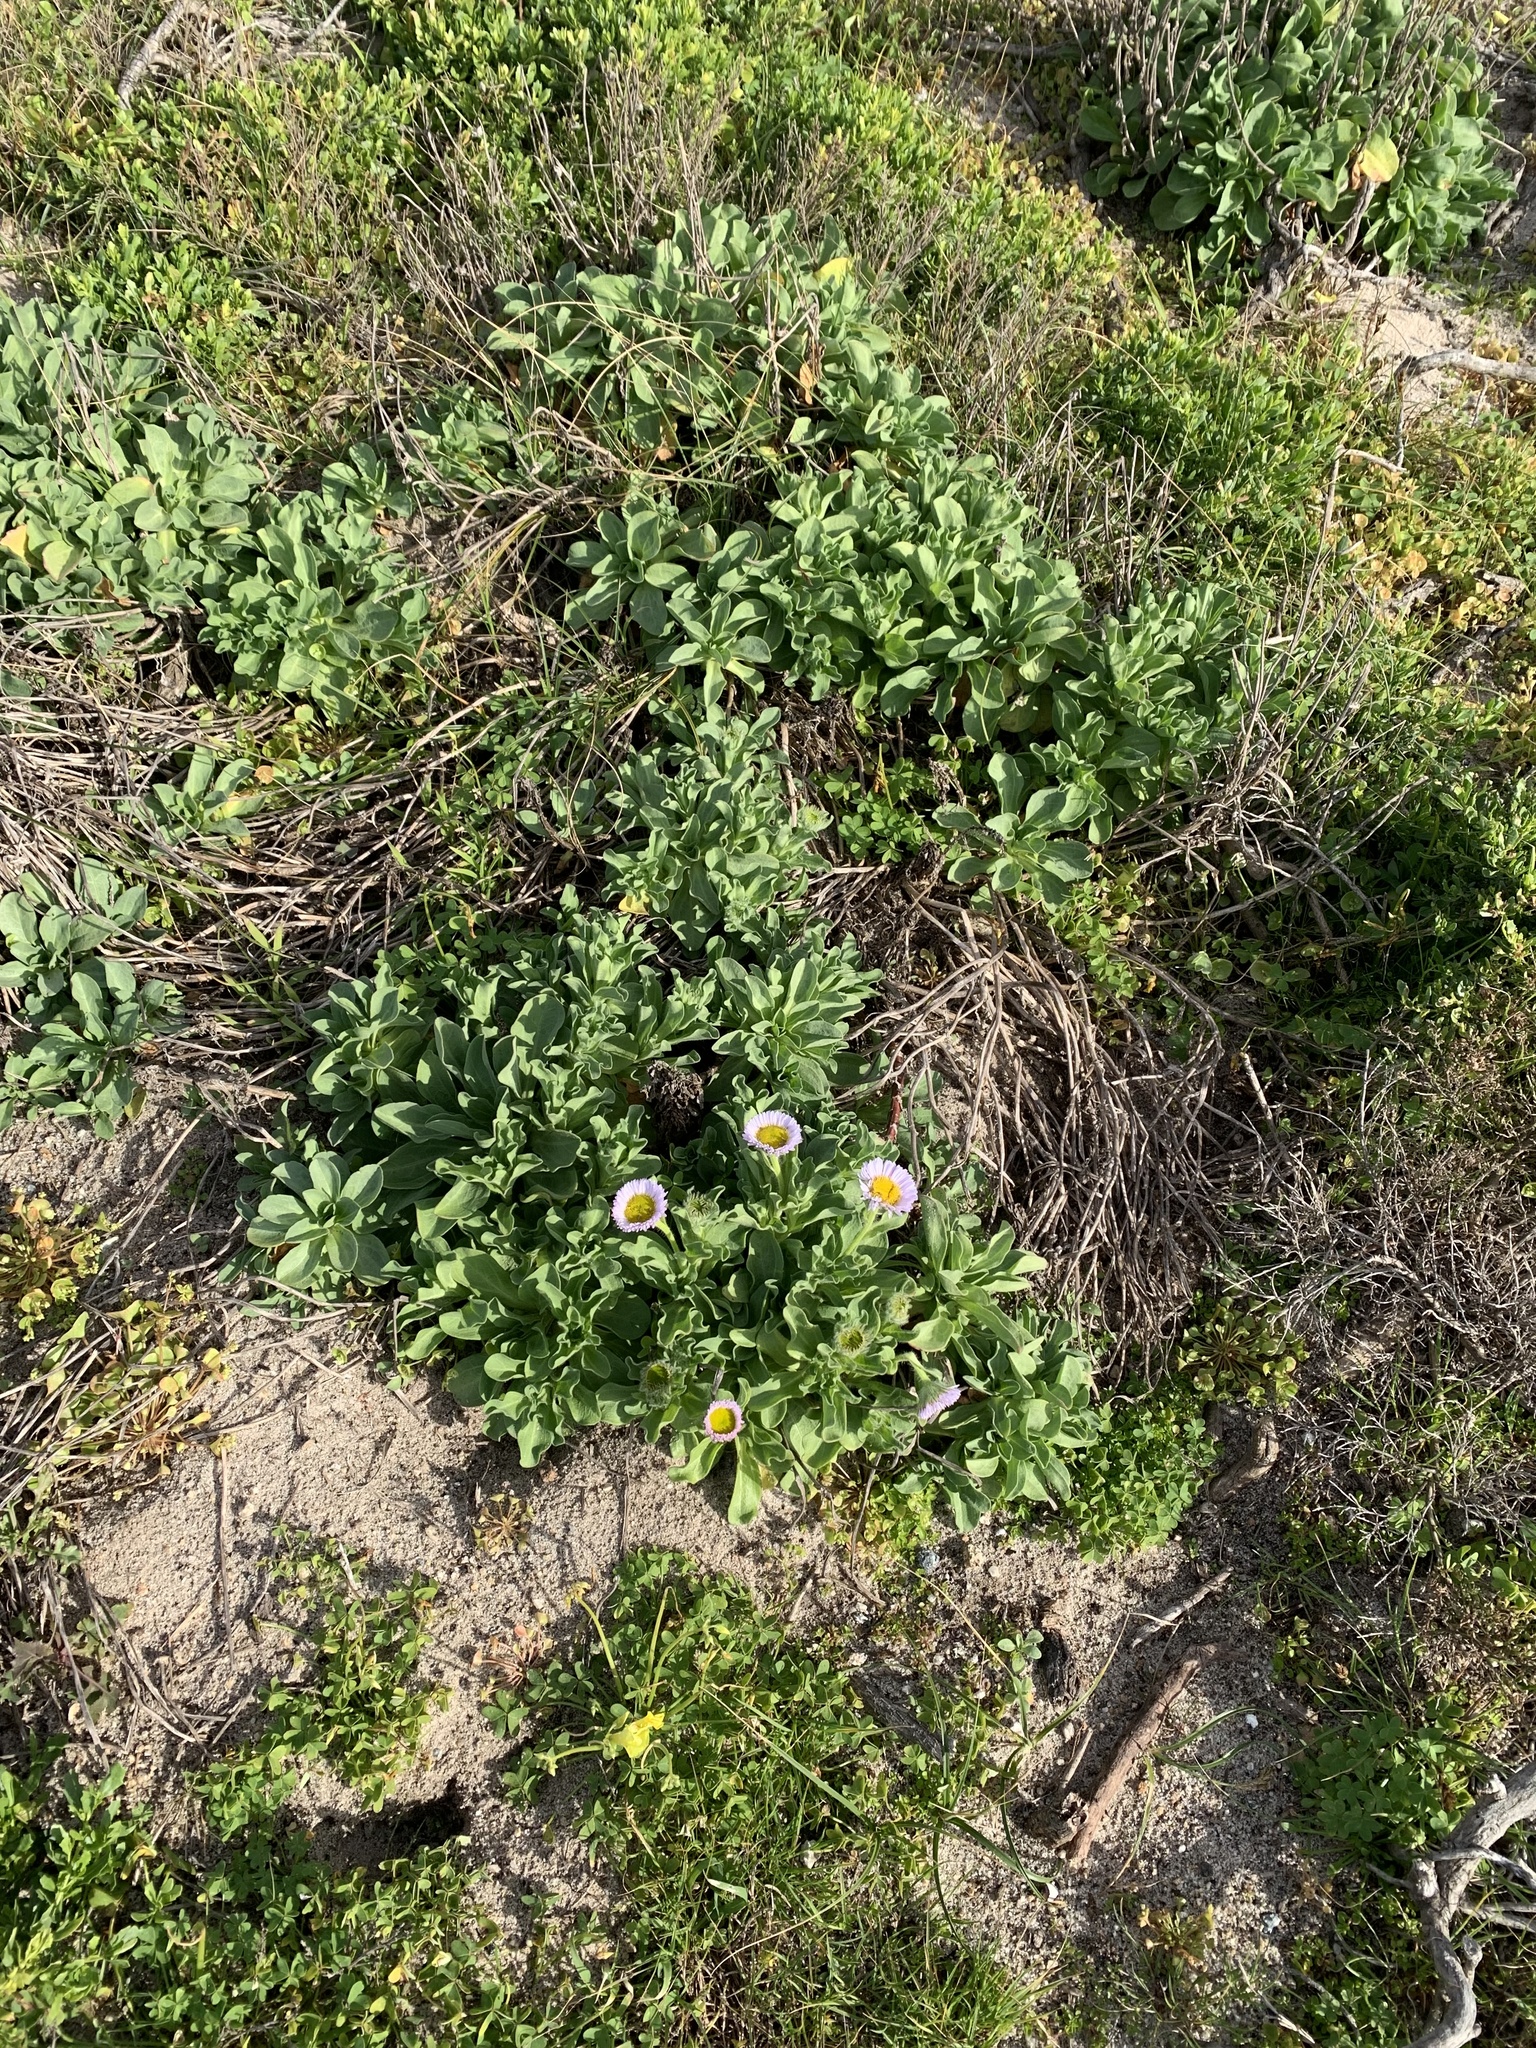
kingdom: Plantae
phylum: Tracheophyta
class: Magnoliopsida
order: Asterales
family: Asteraceae
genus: Erigeron
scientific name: Erigeron glaucus
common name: Seaside daisy
